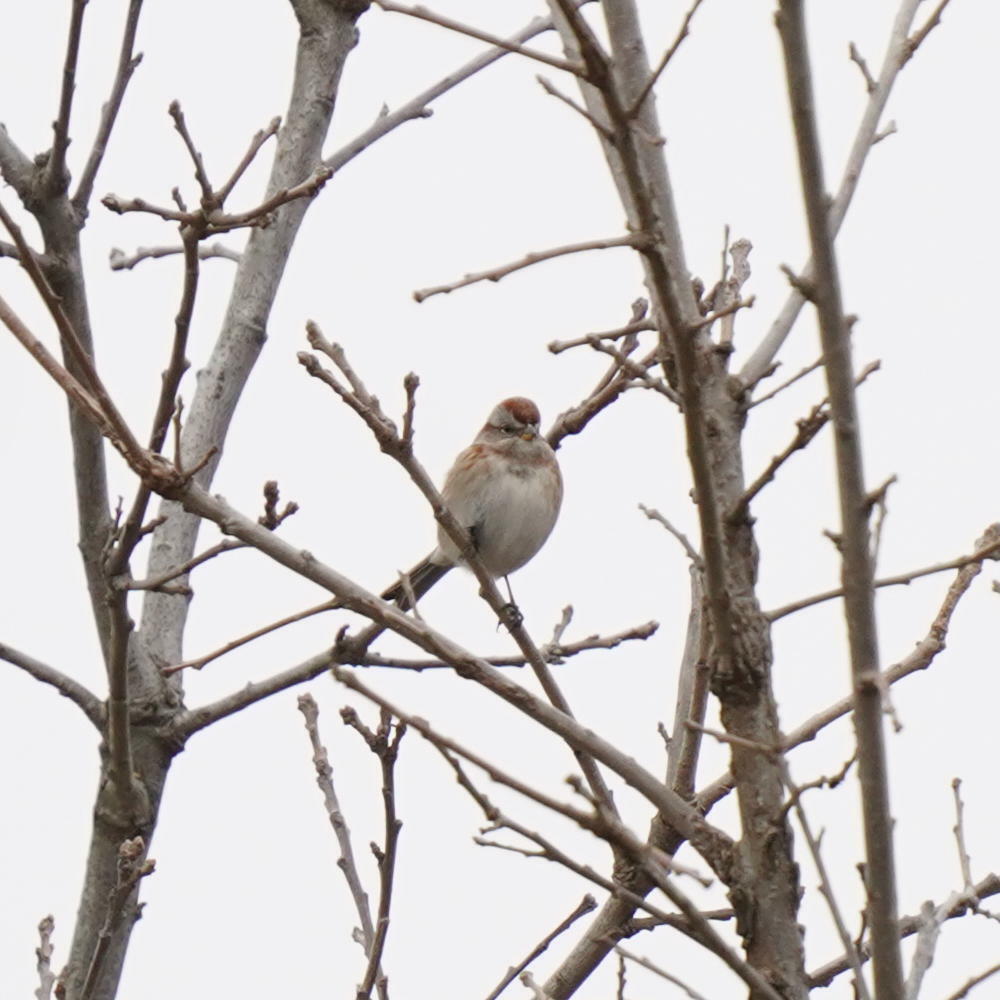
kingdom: Animalia
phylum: Chordata
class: Aves
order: Passeriformes
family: Passerellidae
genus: Spizelloides
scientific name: Spizelloides arborea
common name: American tree sparrow
